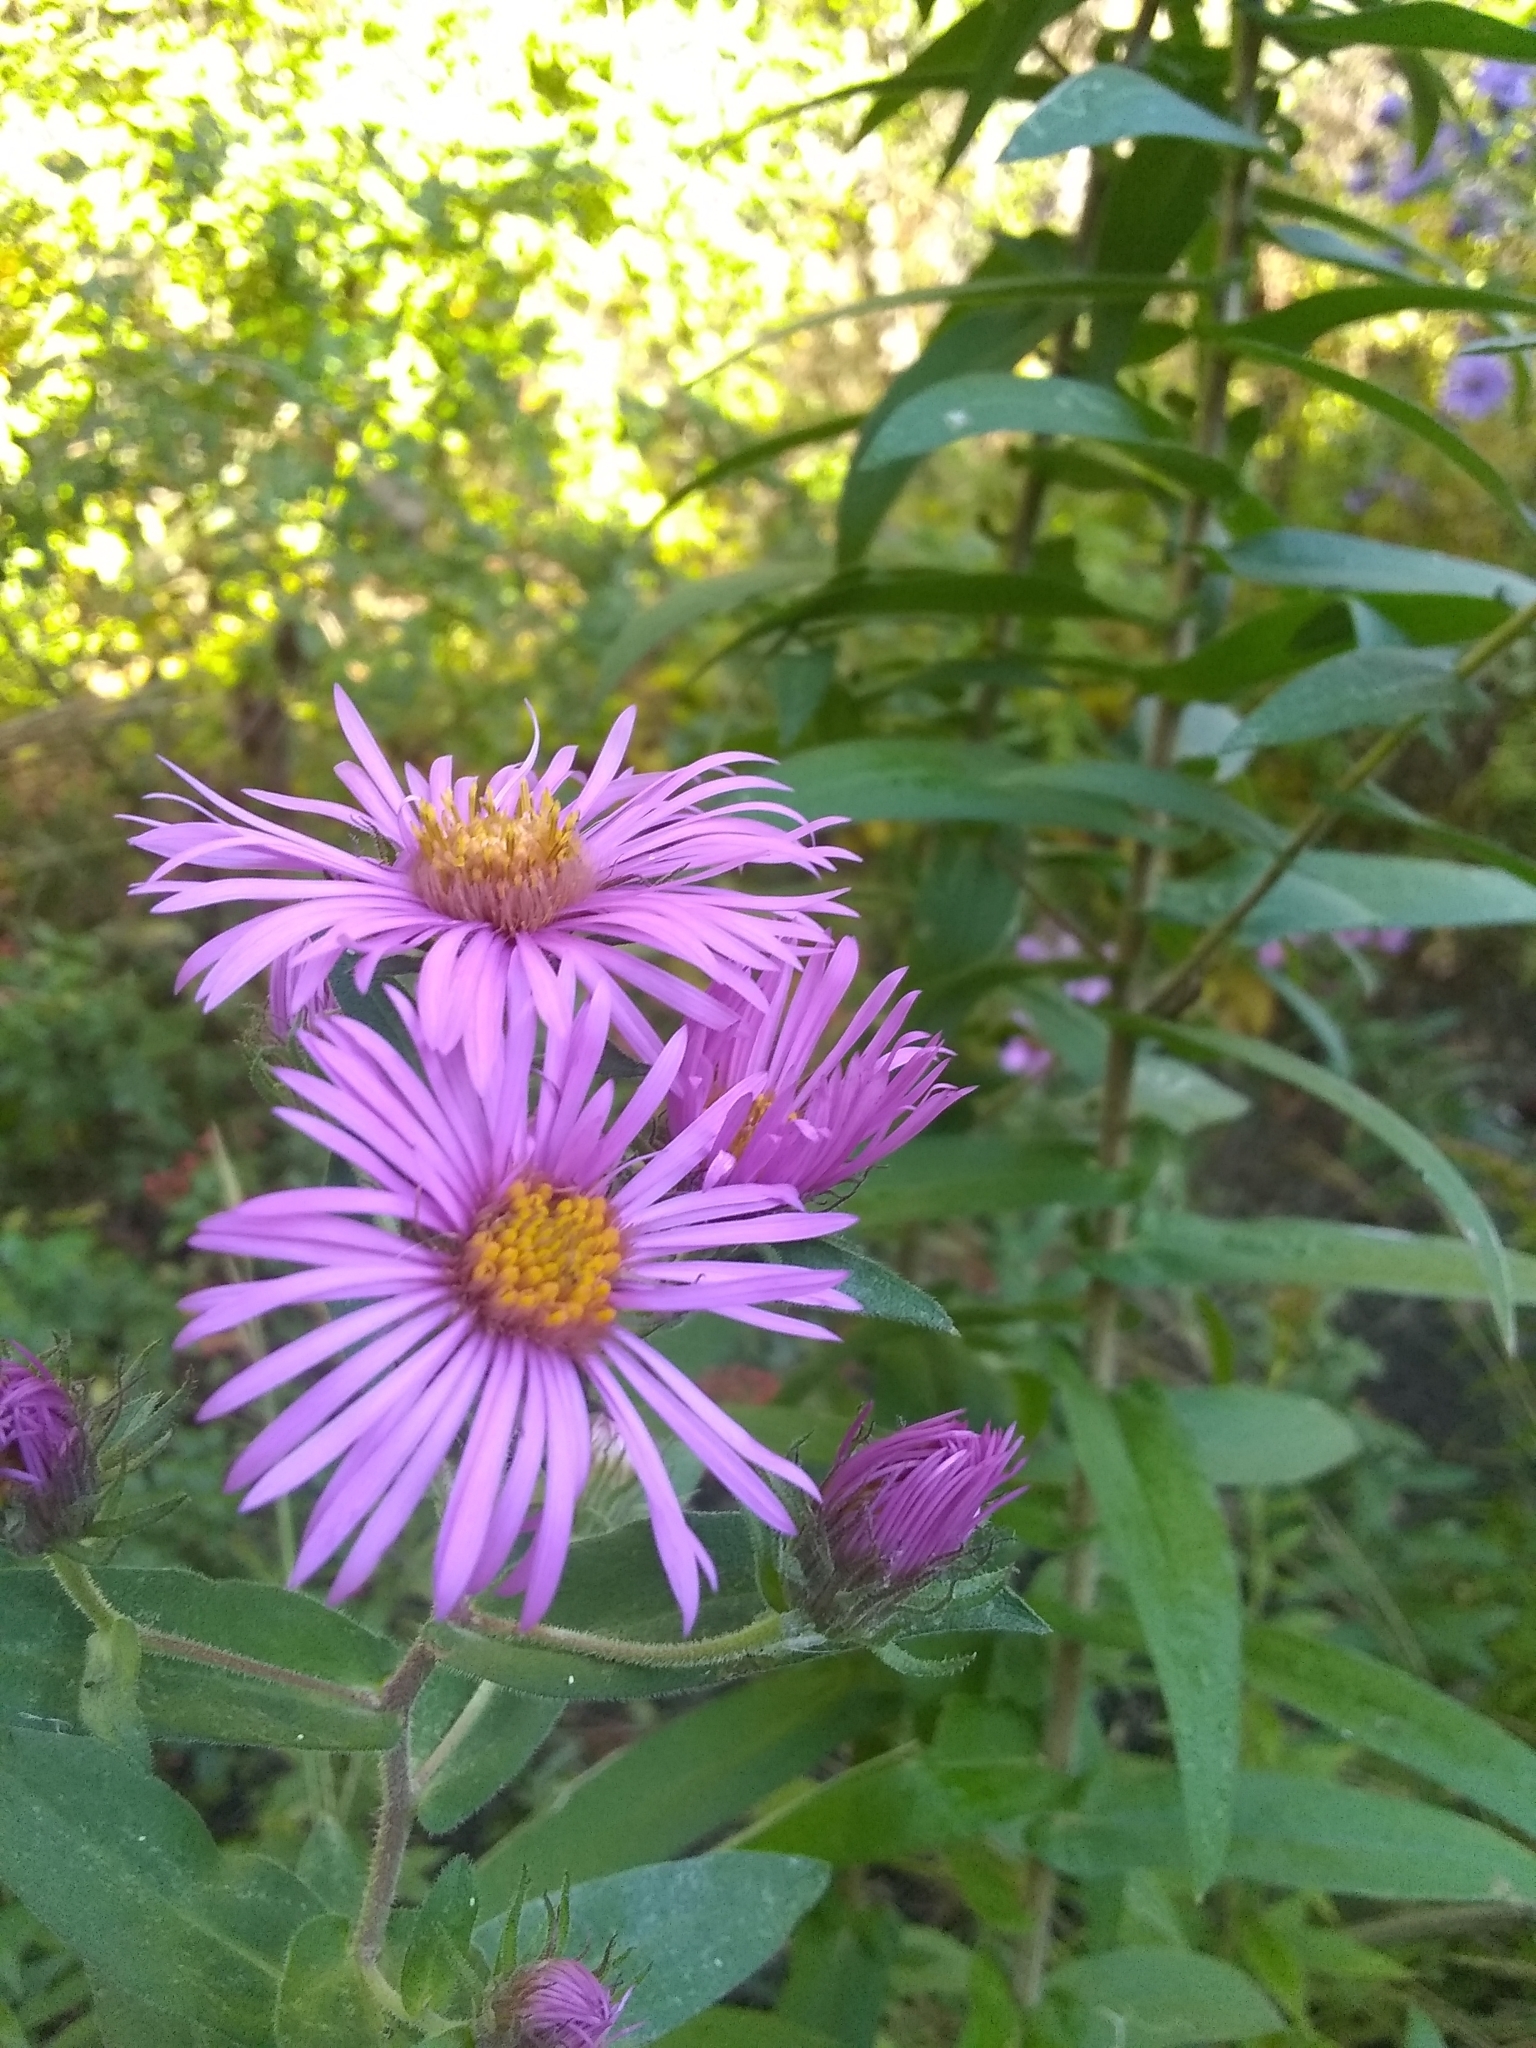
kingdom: Plantae
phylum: Tracheophyta
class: Magnoliopsida
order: Asterales
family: Asteraceae
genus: Symphyotrichum
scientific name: Symphyotrichum novae-angliae
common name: Michaelmas daisy
